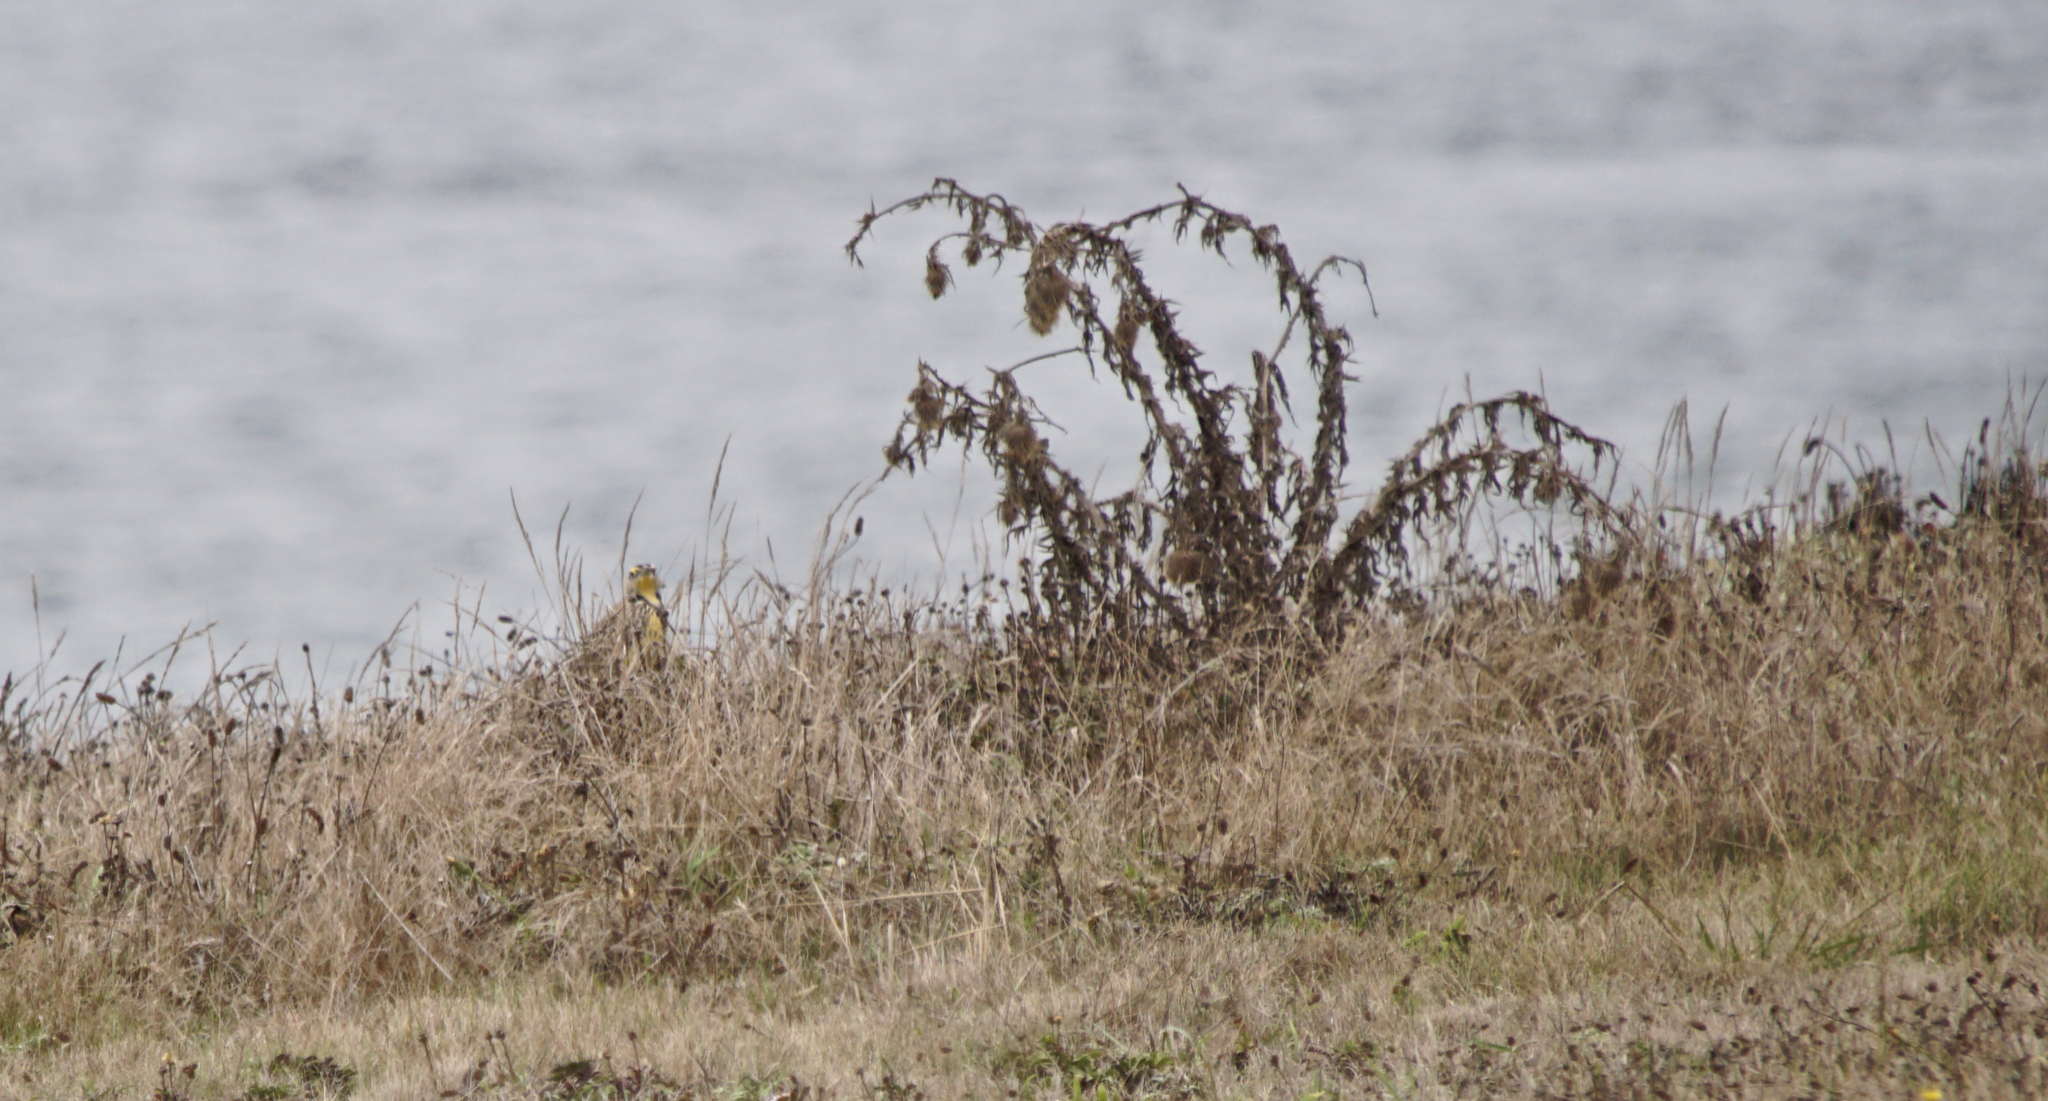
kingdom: Animalia
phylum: Chordata
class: Aves
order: Passeriformes
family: Icteridae
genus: Sturnella
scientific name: Sturnella neglecta
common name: Western meadowlark
